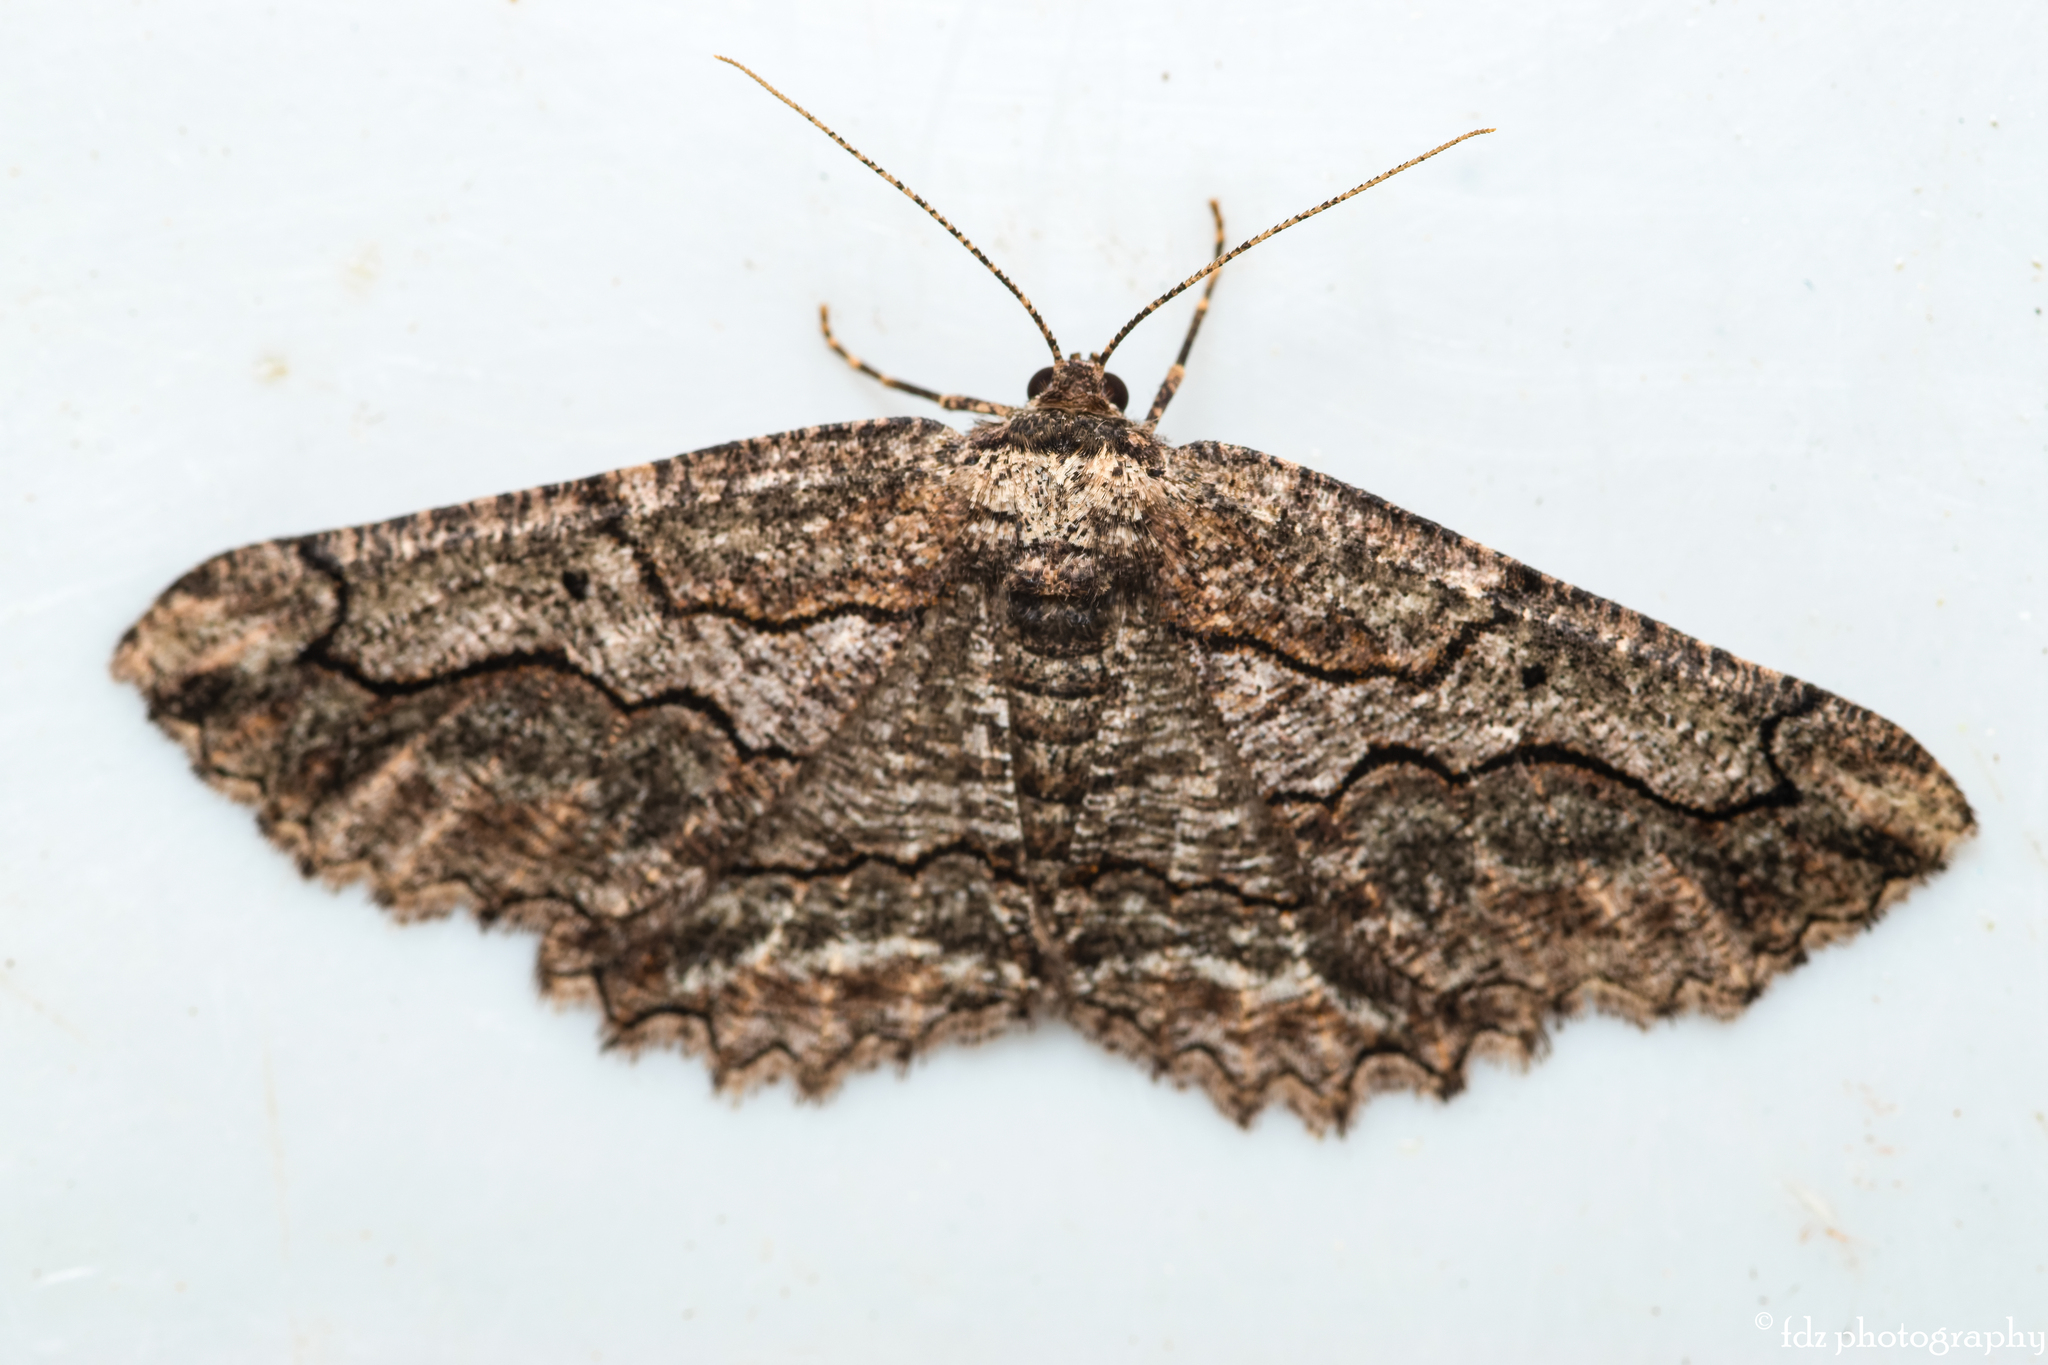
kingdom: Animalia
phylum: Arthropoda
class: Insecta
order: Lepidoptera
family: Geometridae
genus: Menophra
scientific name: Menophra japygiaria
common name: Brassy waved umber
